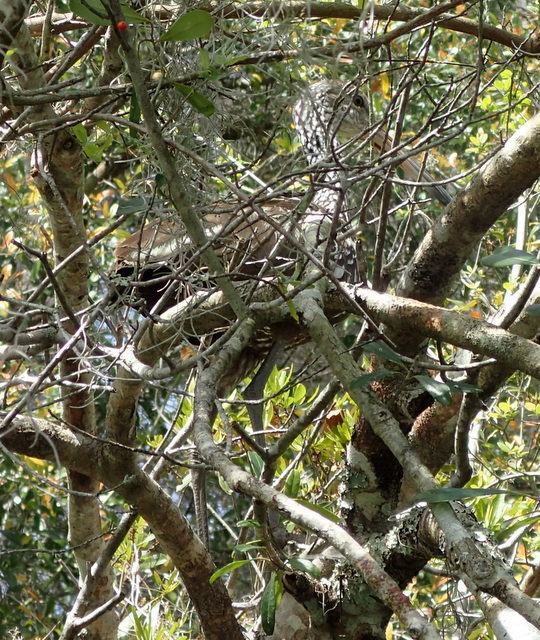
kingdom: Animalia
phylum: Chordata
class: Aves
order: Gruiformes
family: Aramidae
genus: Aramus
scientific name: Aramus guarauna
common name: Limpkin
